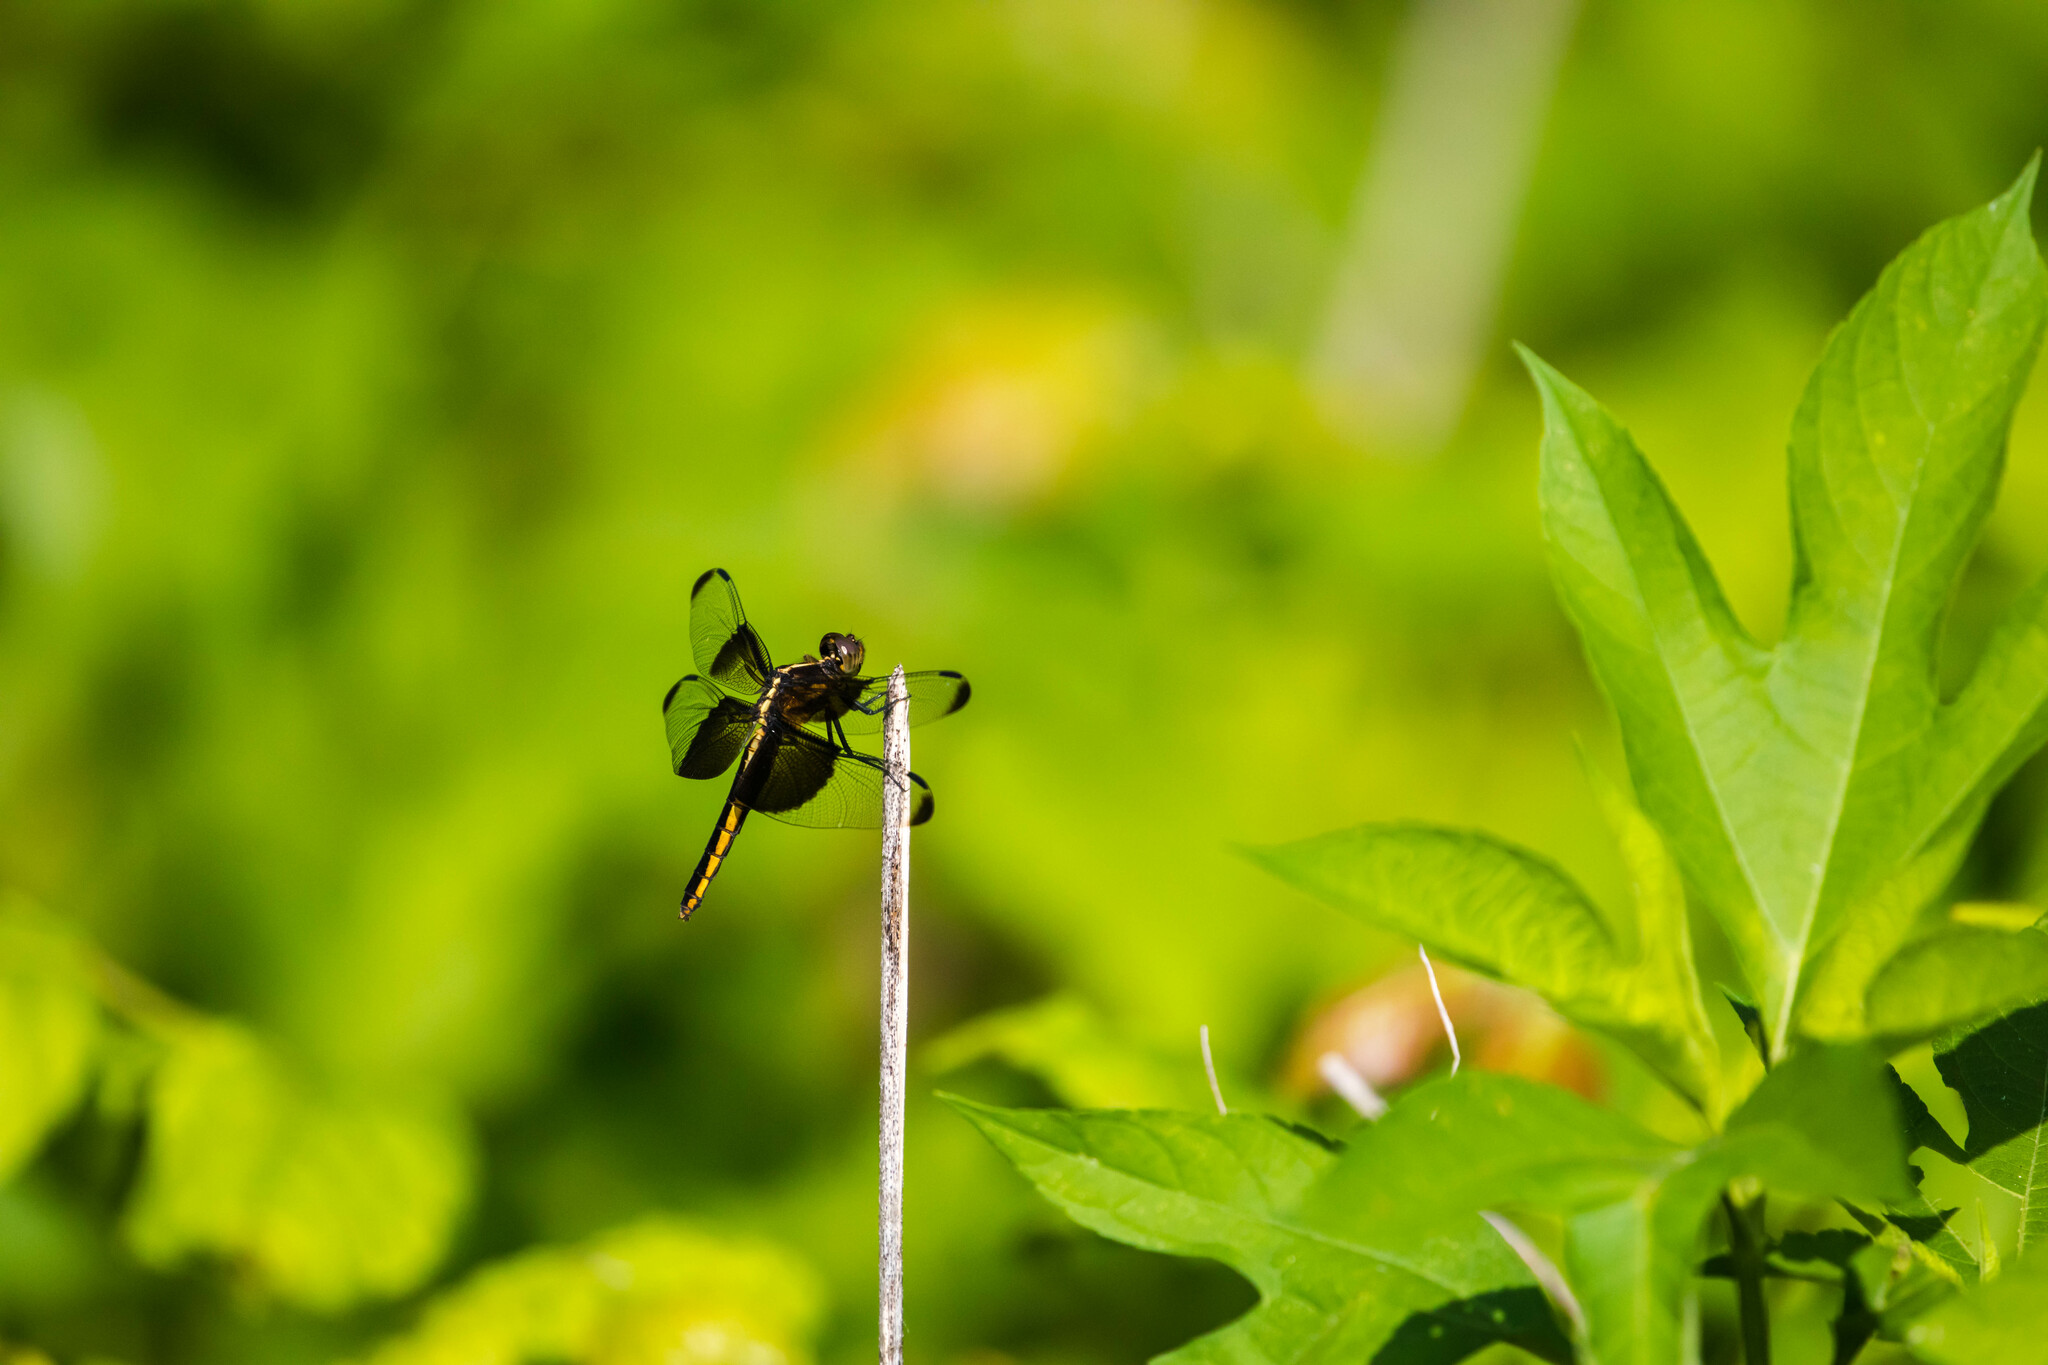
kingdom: Animalia
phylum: Arthropoda
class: Insecta
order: Odonata
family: Libellulidae
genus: Libellula
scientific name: Libellula luctuosa
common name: Widow skimmer
